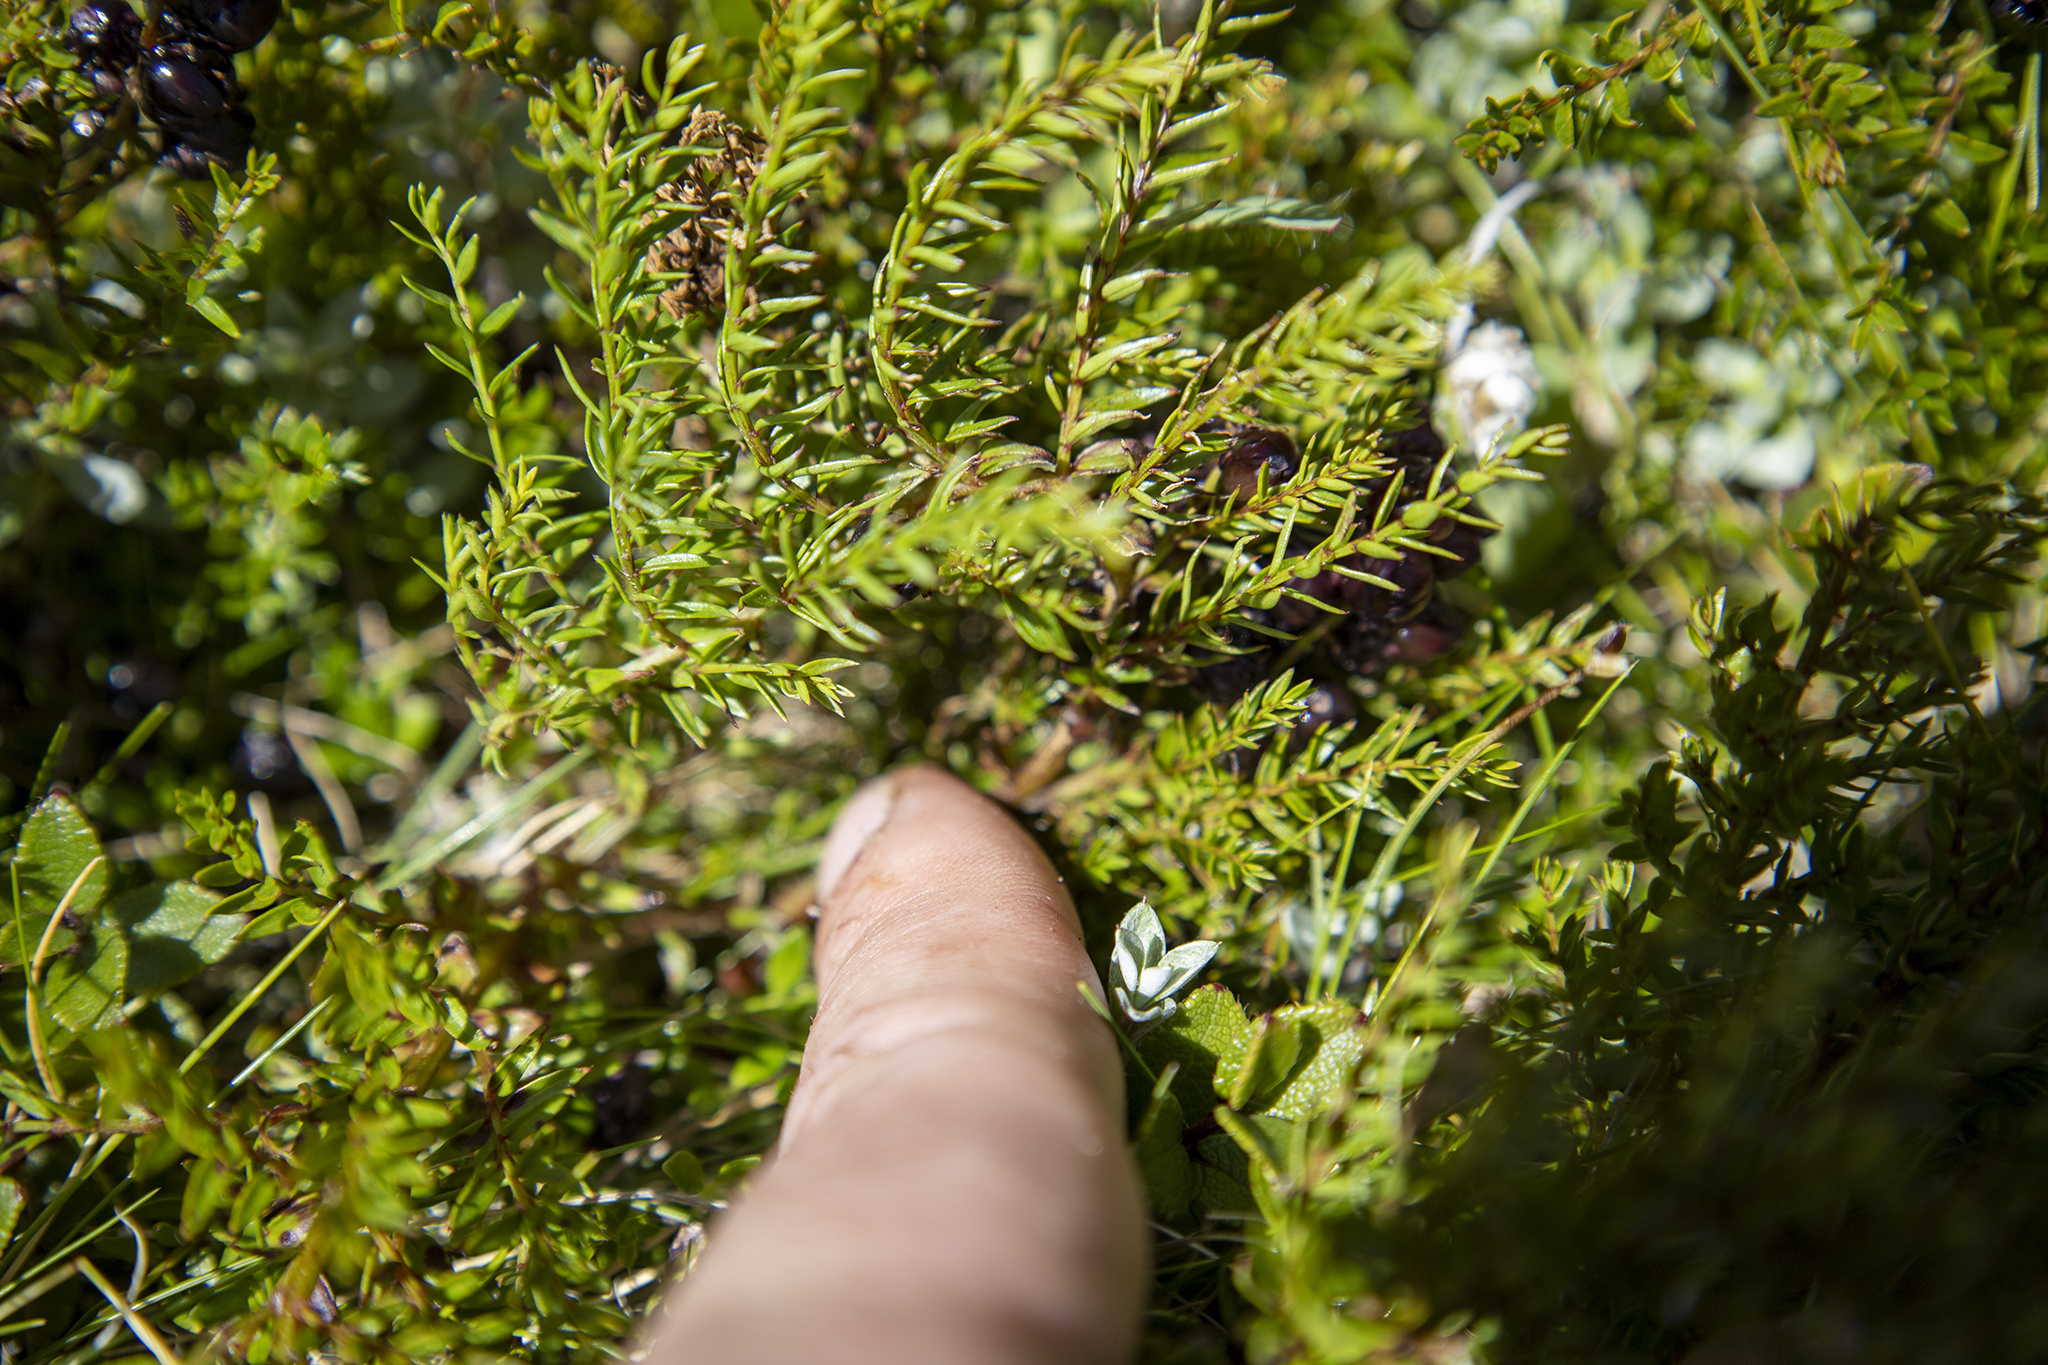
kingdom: Plantae
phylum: Tracheophyta
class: Magnoliopsida
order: Cucurbitales
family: Coriariaceae
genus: Coriaria
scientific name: Coriaria plumosa
